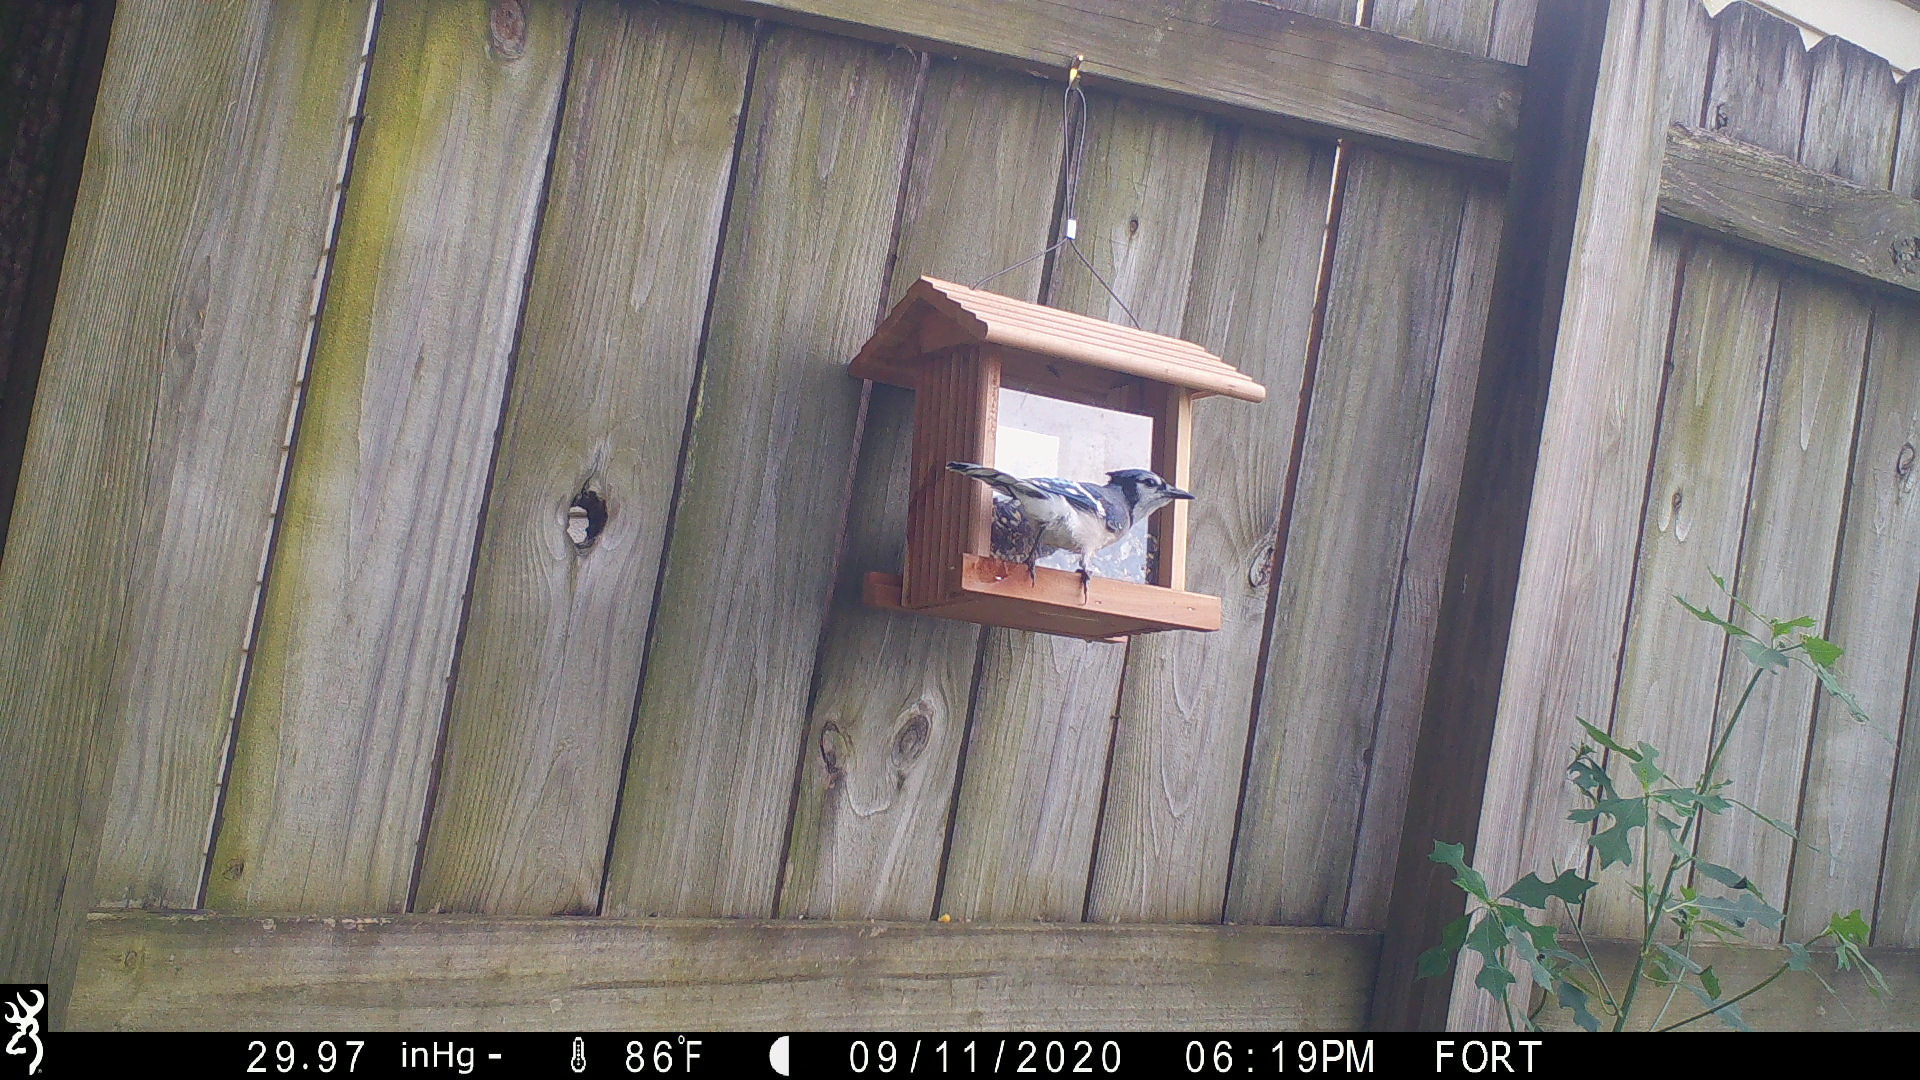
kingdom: Animalia
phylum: Chordata
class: Aves
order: Passeriformes
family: Corvidae
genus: Cyanocitta
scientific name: Cyanocitta cristata
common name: Blue jay
